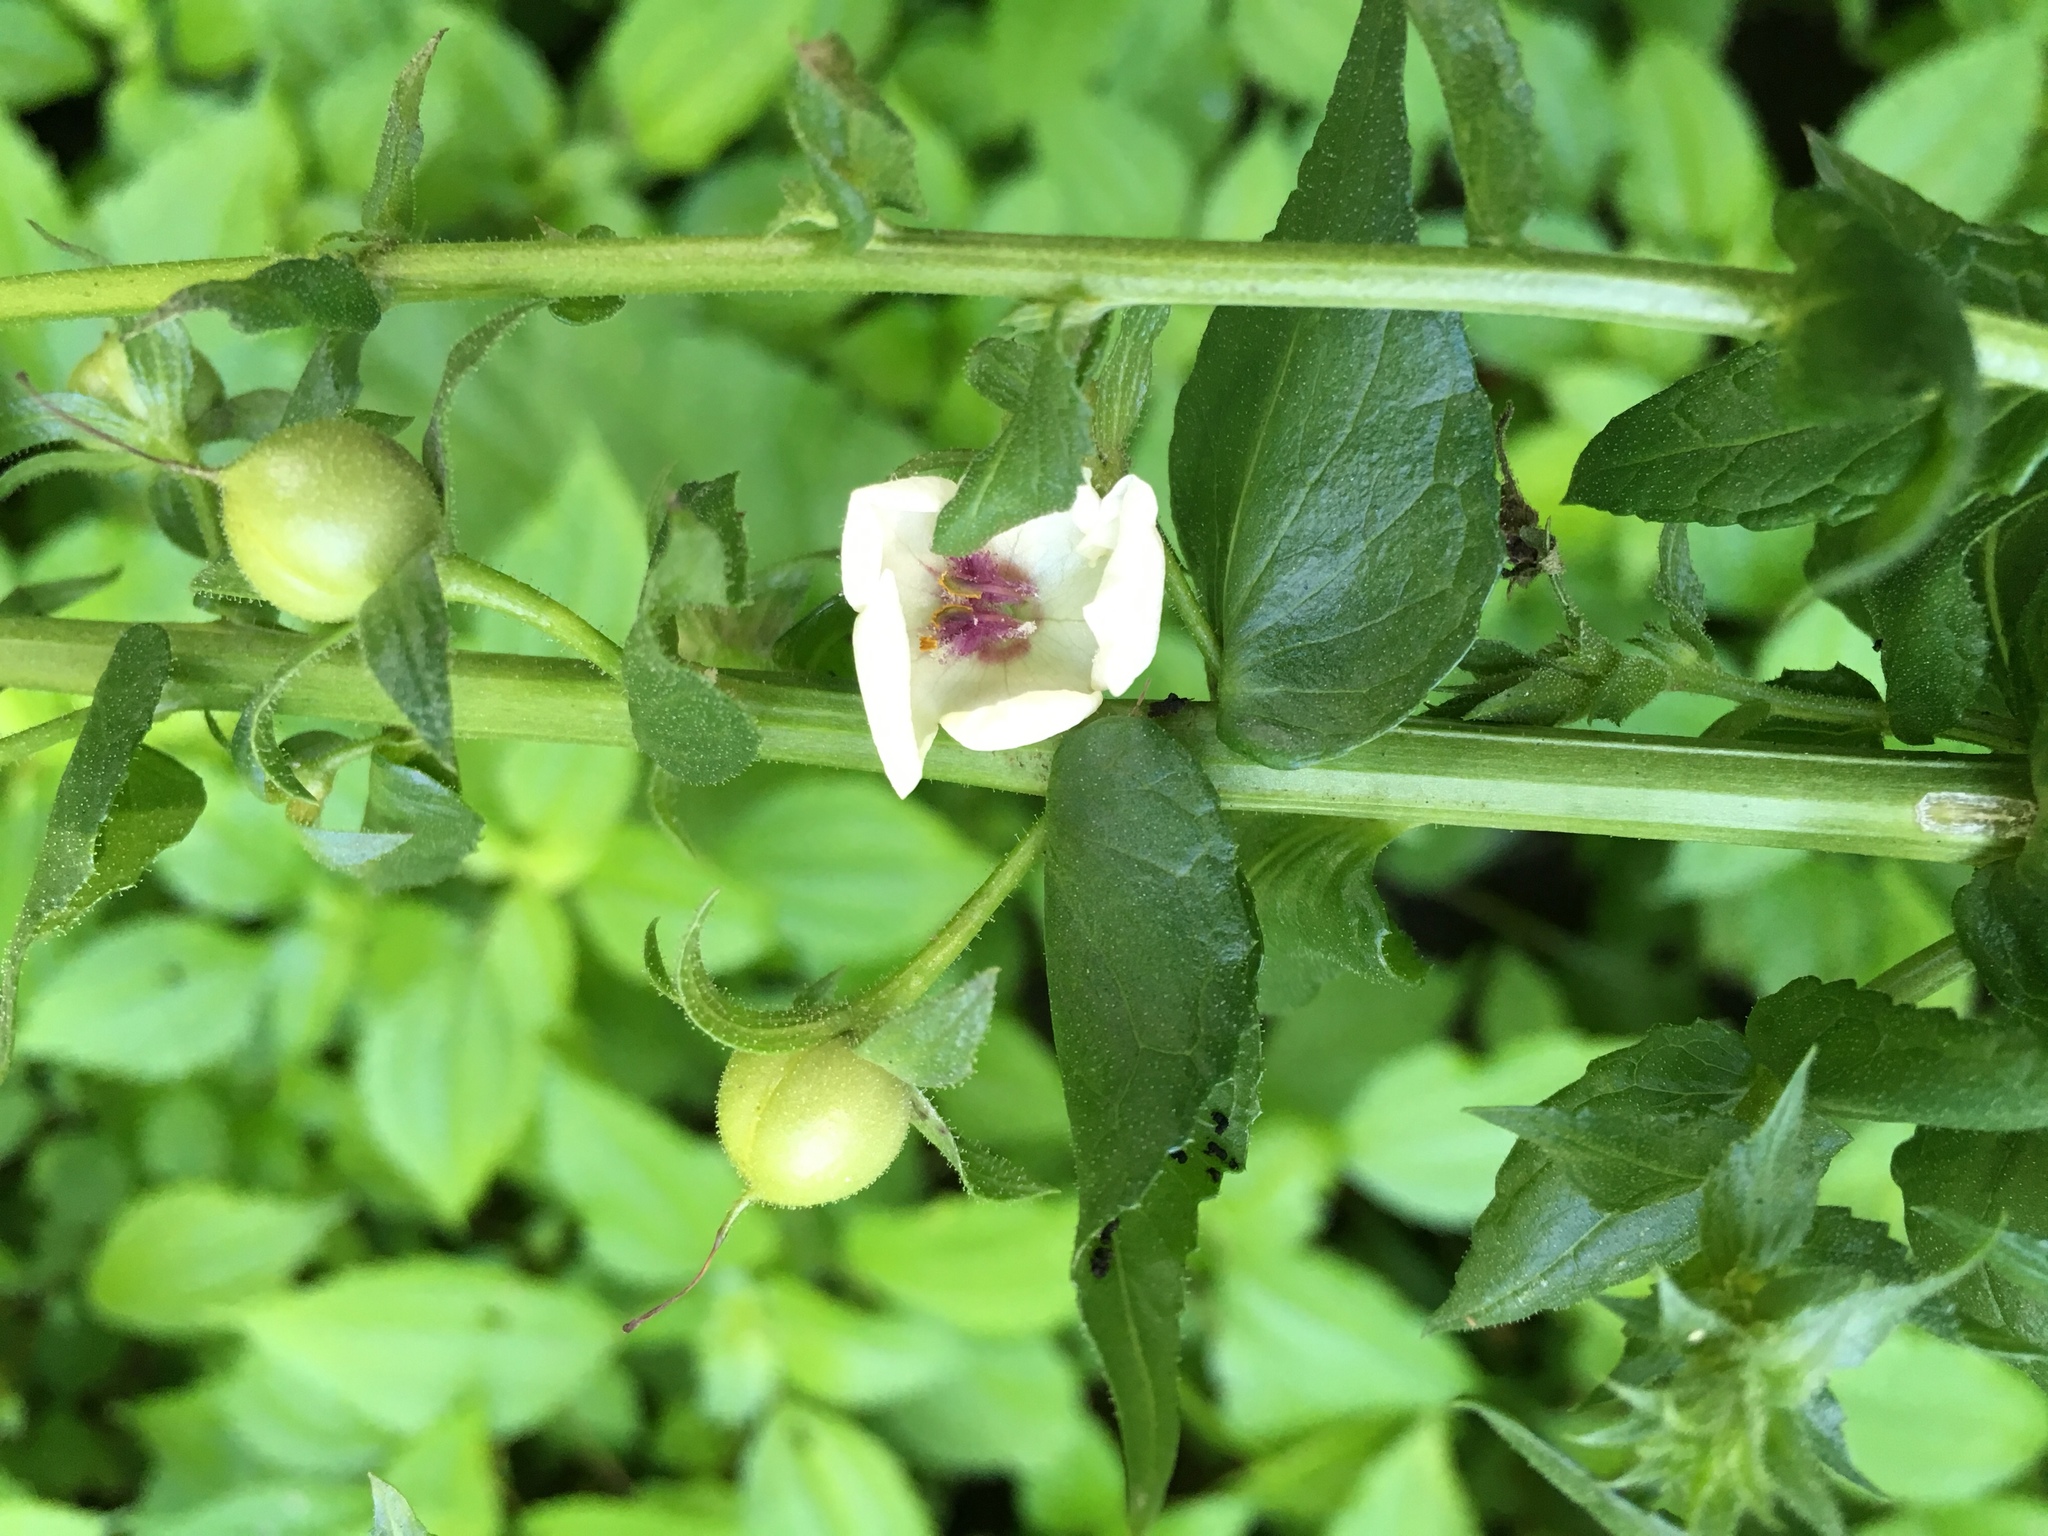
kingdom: Plantae
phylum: Tracheophyta
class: Magnoliopsida
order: Lamiales
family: Scrophulariaceae
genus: Verbascum
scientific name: Verbascum blattaria
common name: Moth mullein
